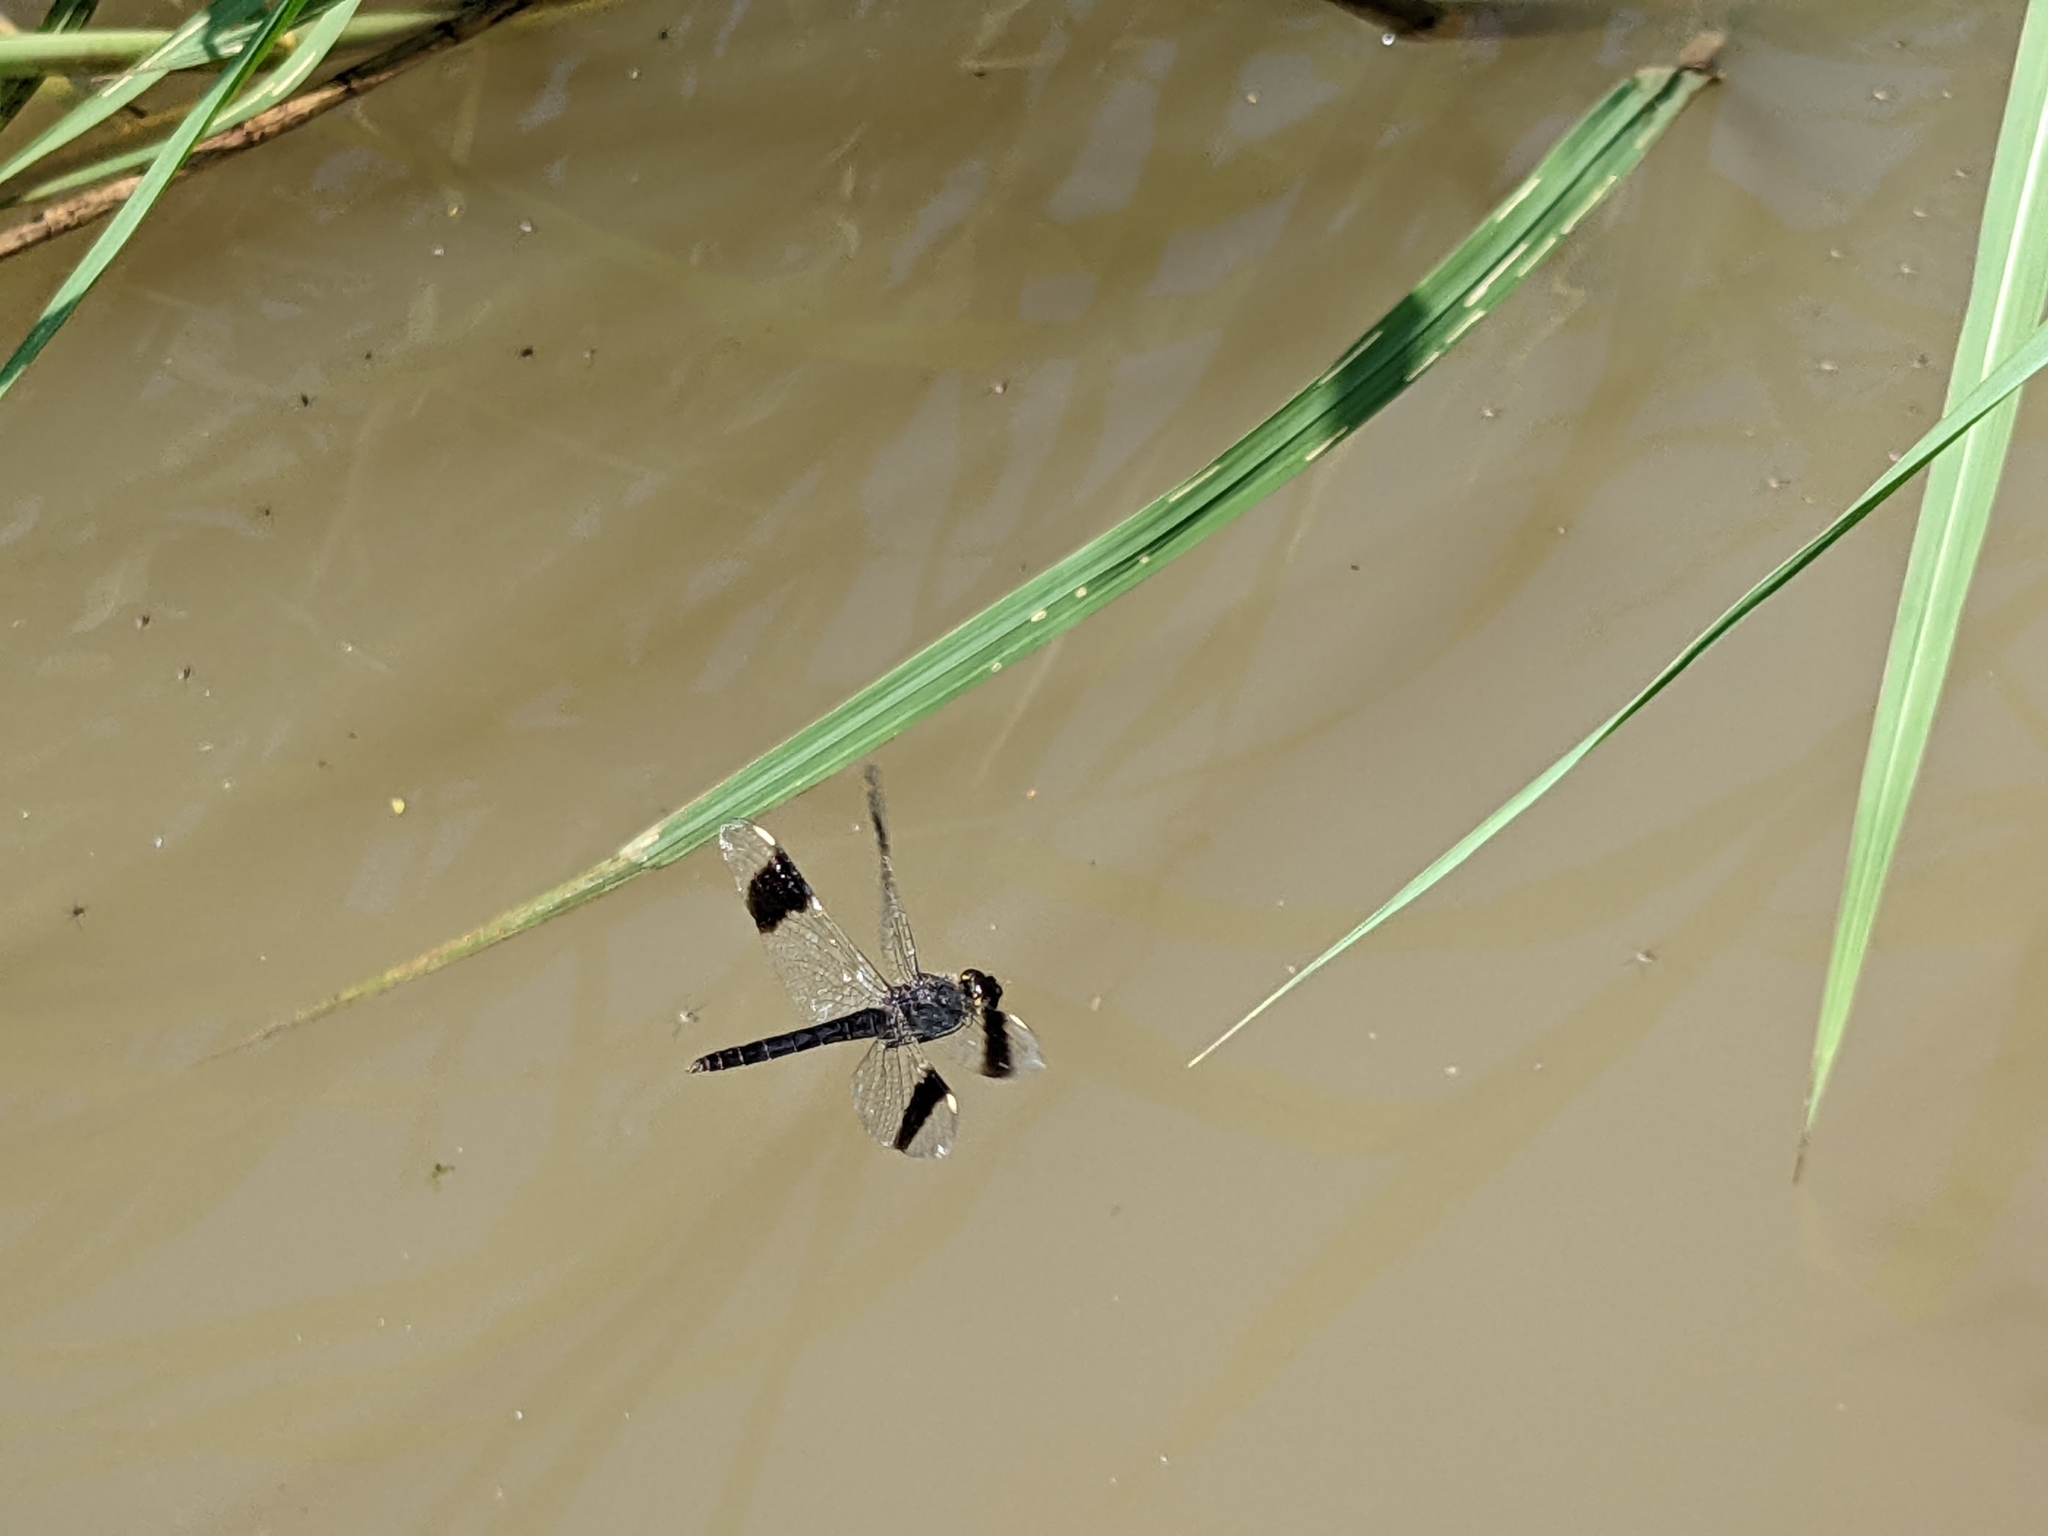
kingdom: Animalia
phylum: Arthropoda
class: Insecta
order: Odonata
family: Libellulidae
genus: Brachythemis
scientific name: Brachythemis leucosticta
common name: Banded groundling
